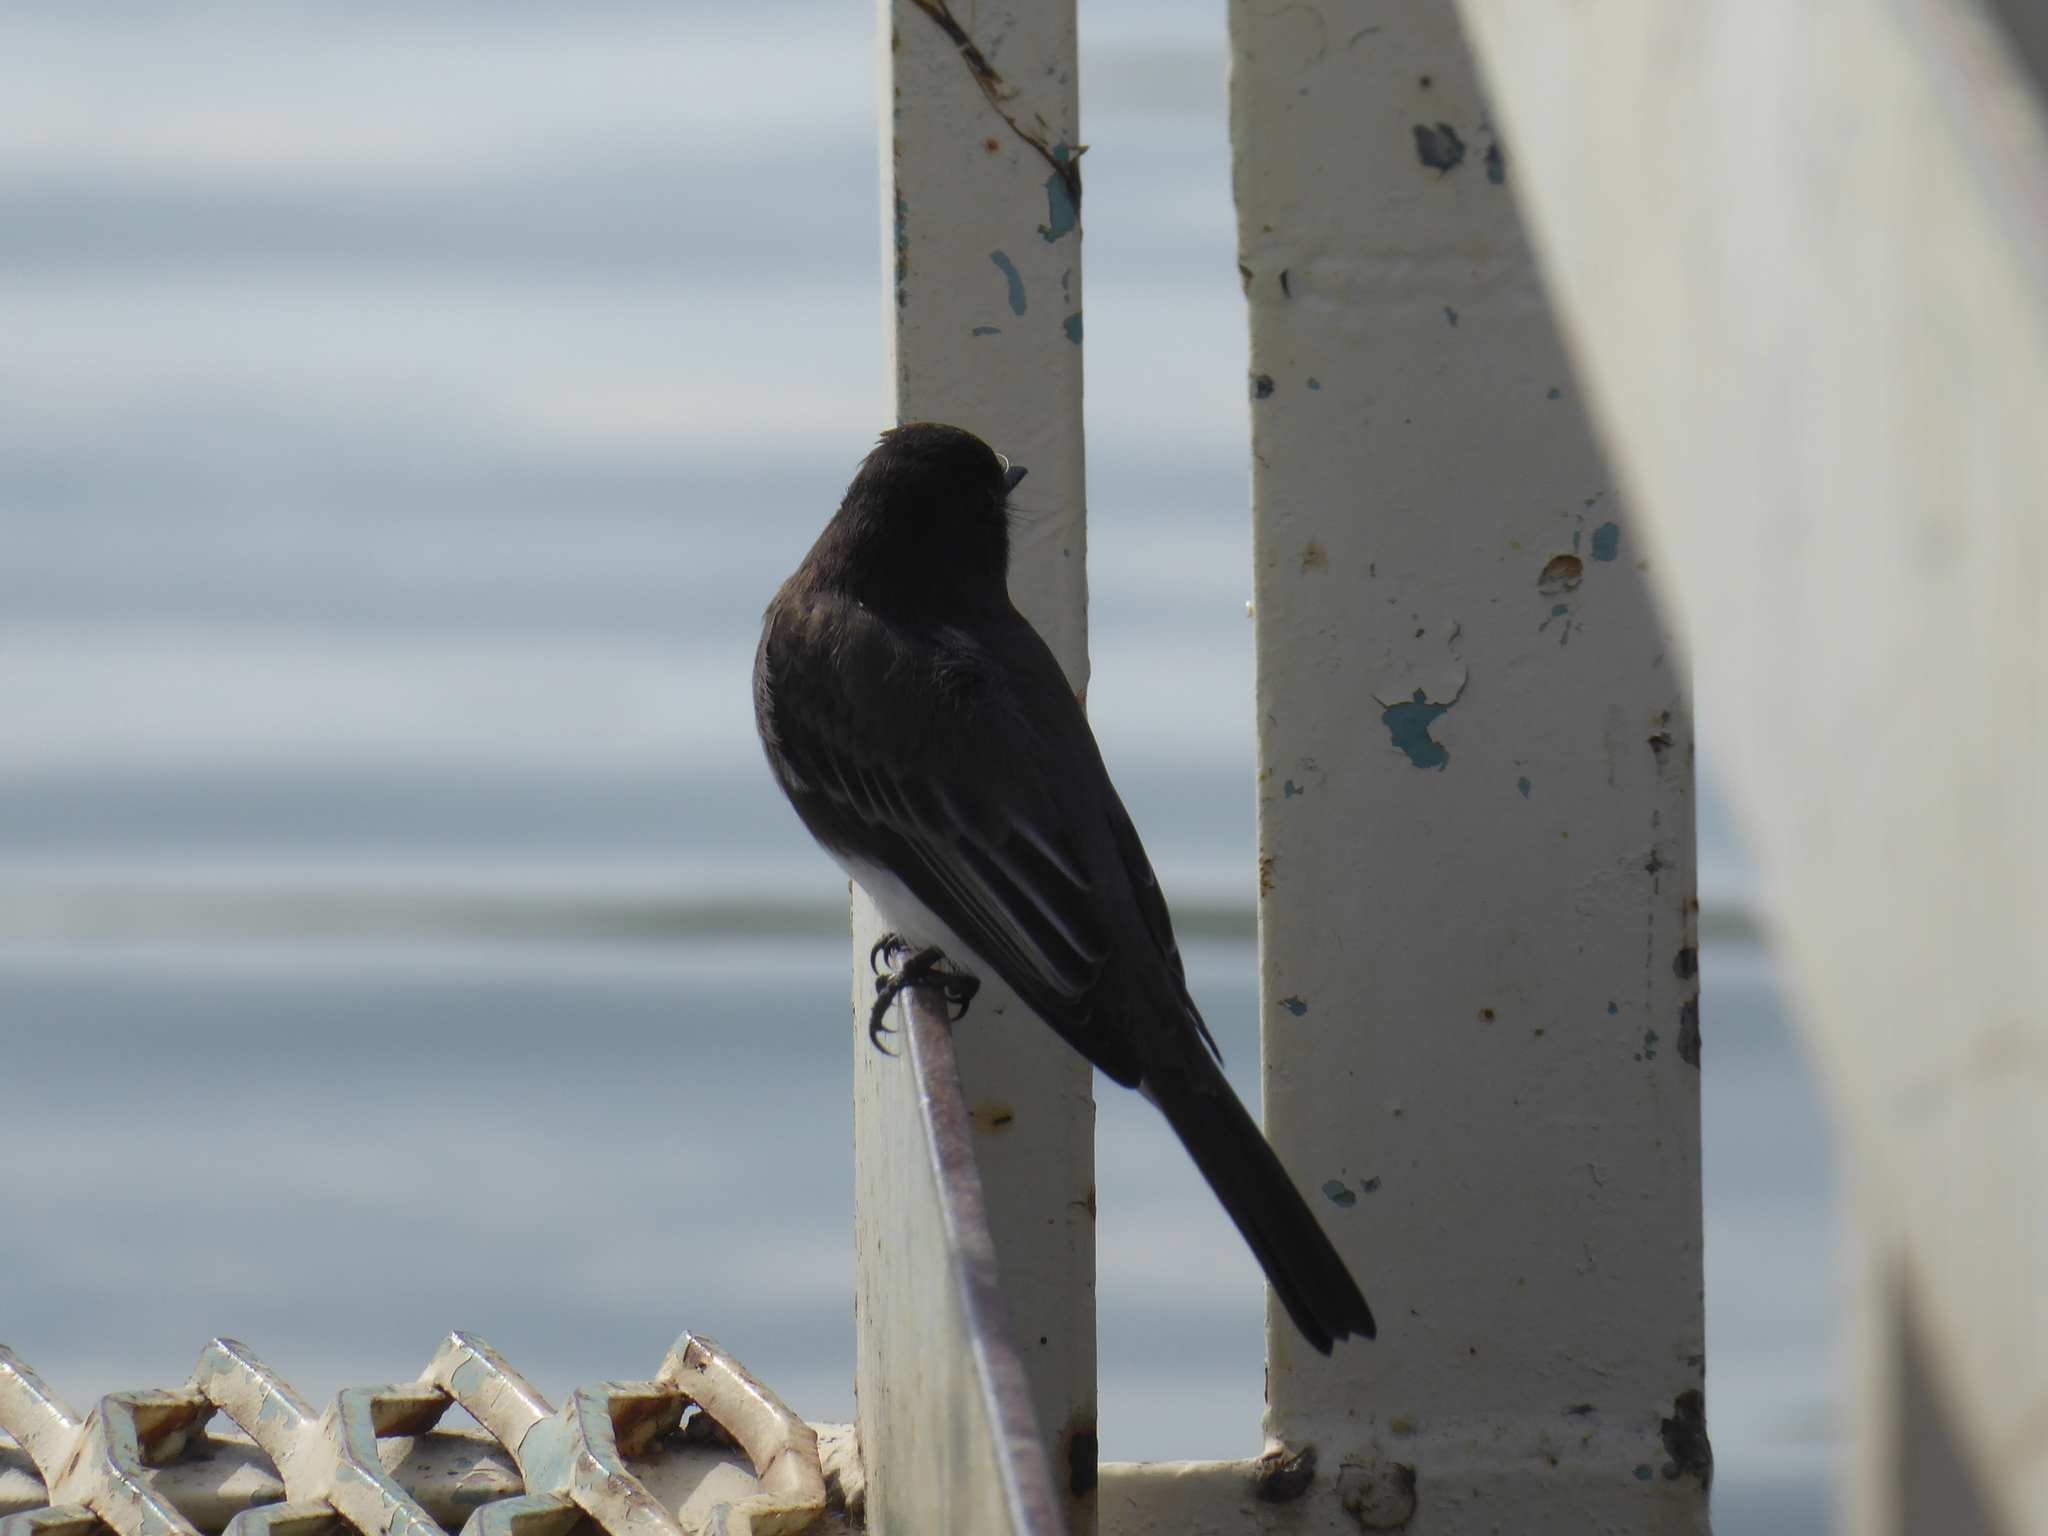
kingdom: Animalia
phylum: Chordata
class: Aves
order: Passeriformes
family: Tyrannidae
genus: Sayornis
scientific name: Sayornis nigricans
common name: Black phoebe
